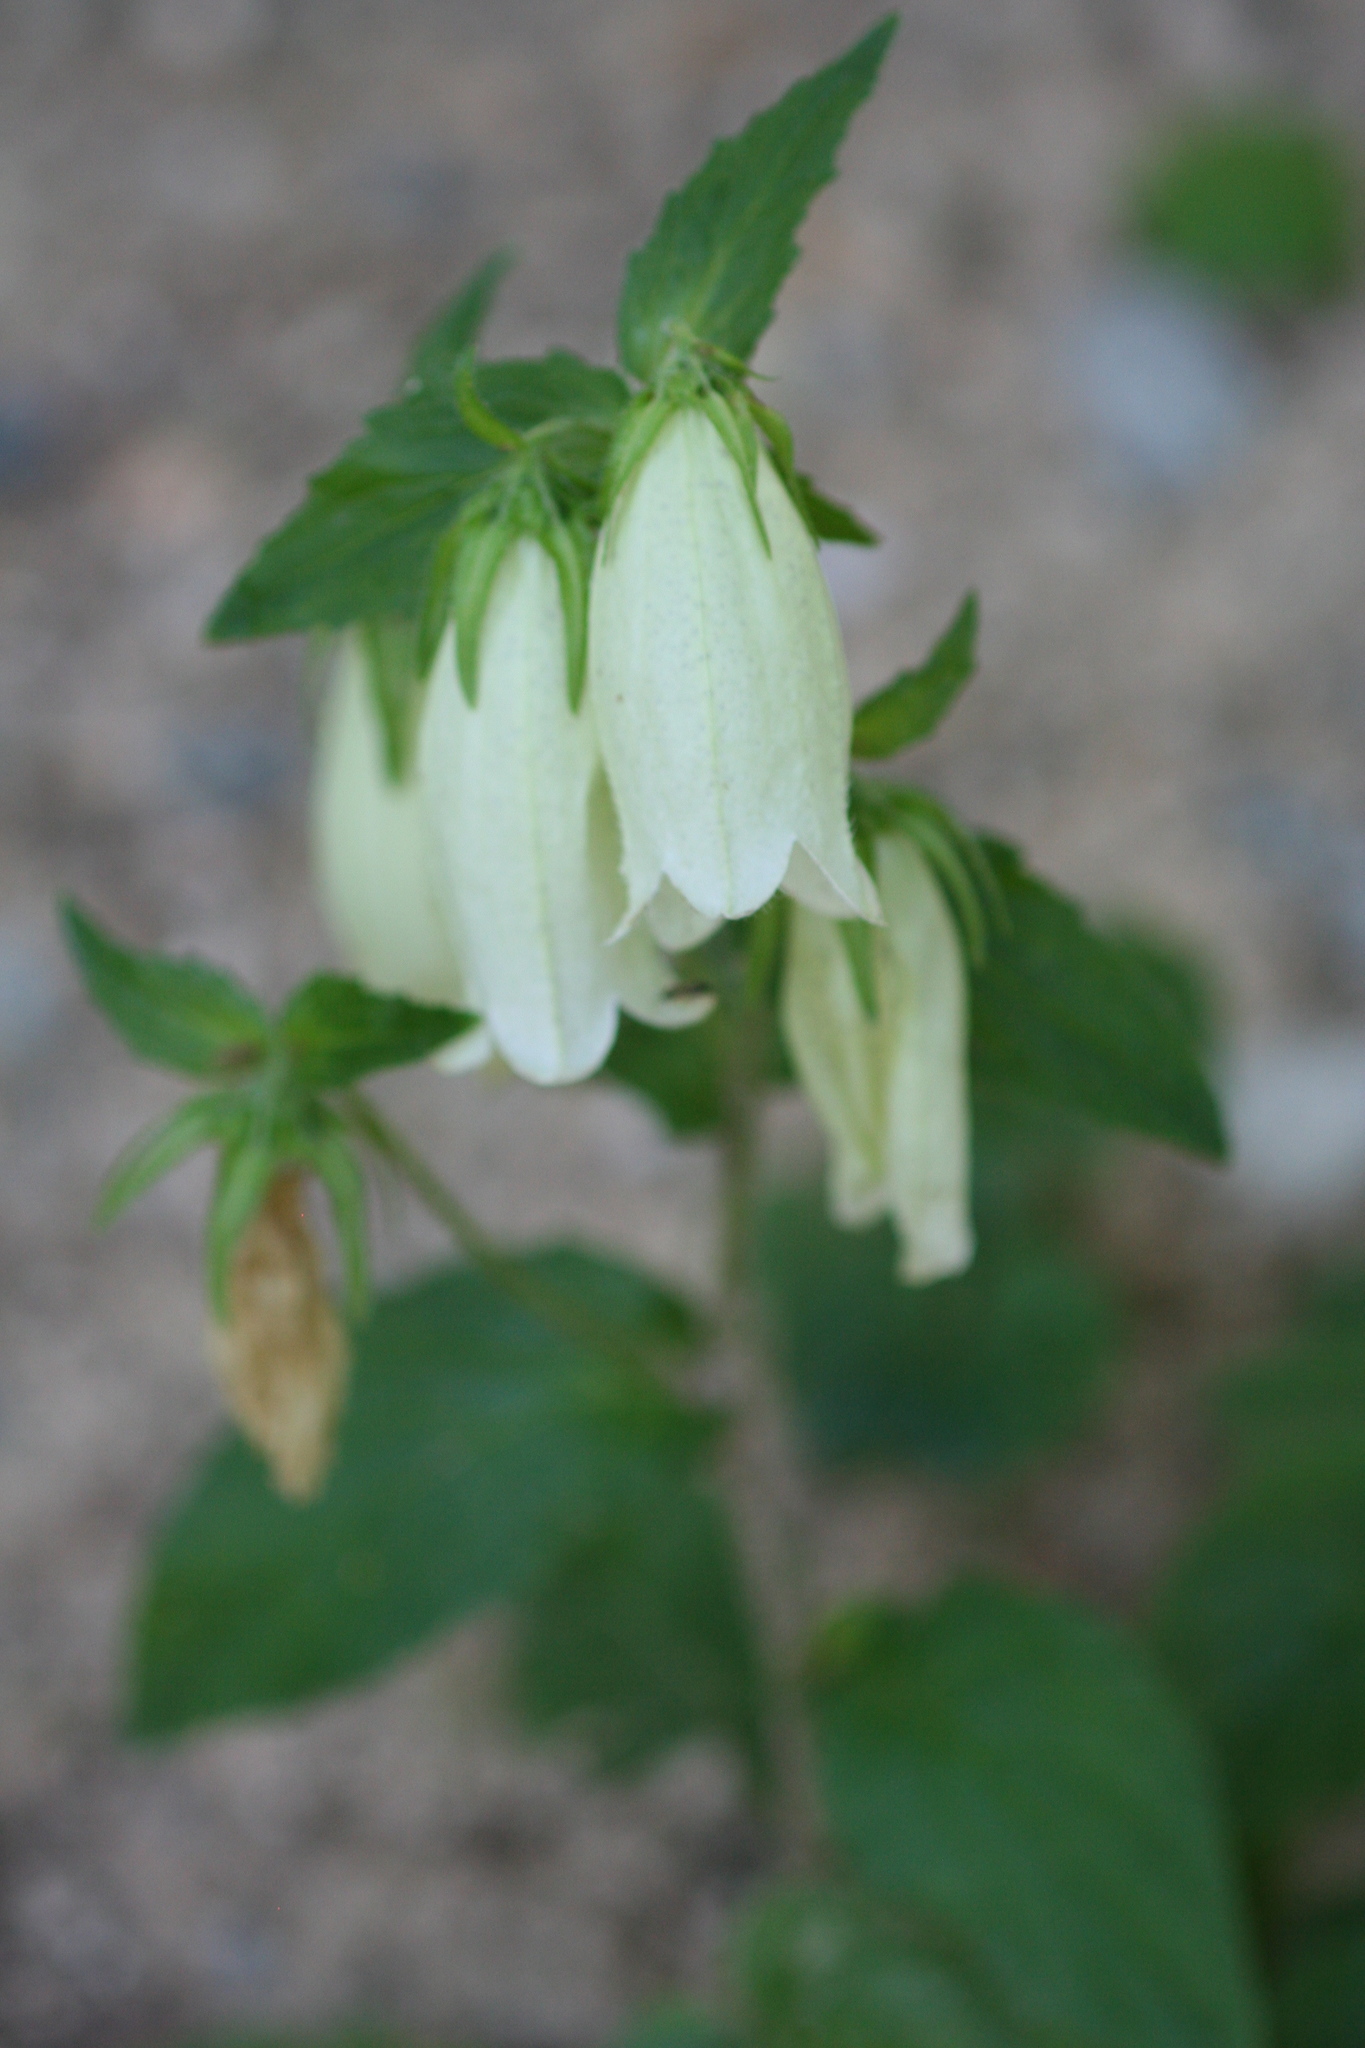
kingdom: Plantae
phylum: Tracheophyta
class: Magnoliopsida
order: Asterales
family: Campanulaceae
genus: Campanula
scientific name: Campanula punctata
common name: Spotted bellflower
